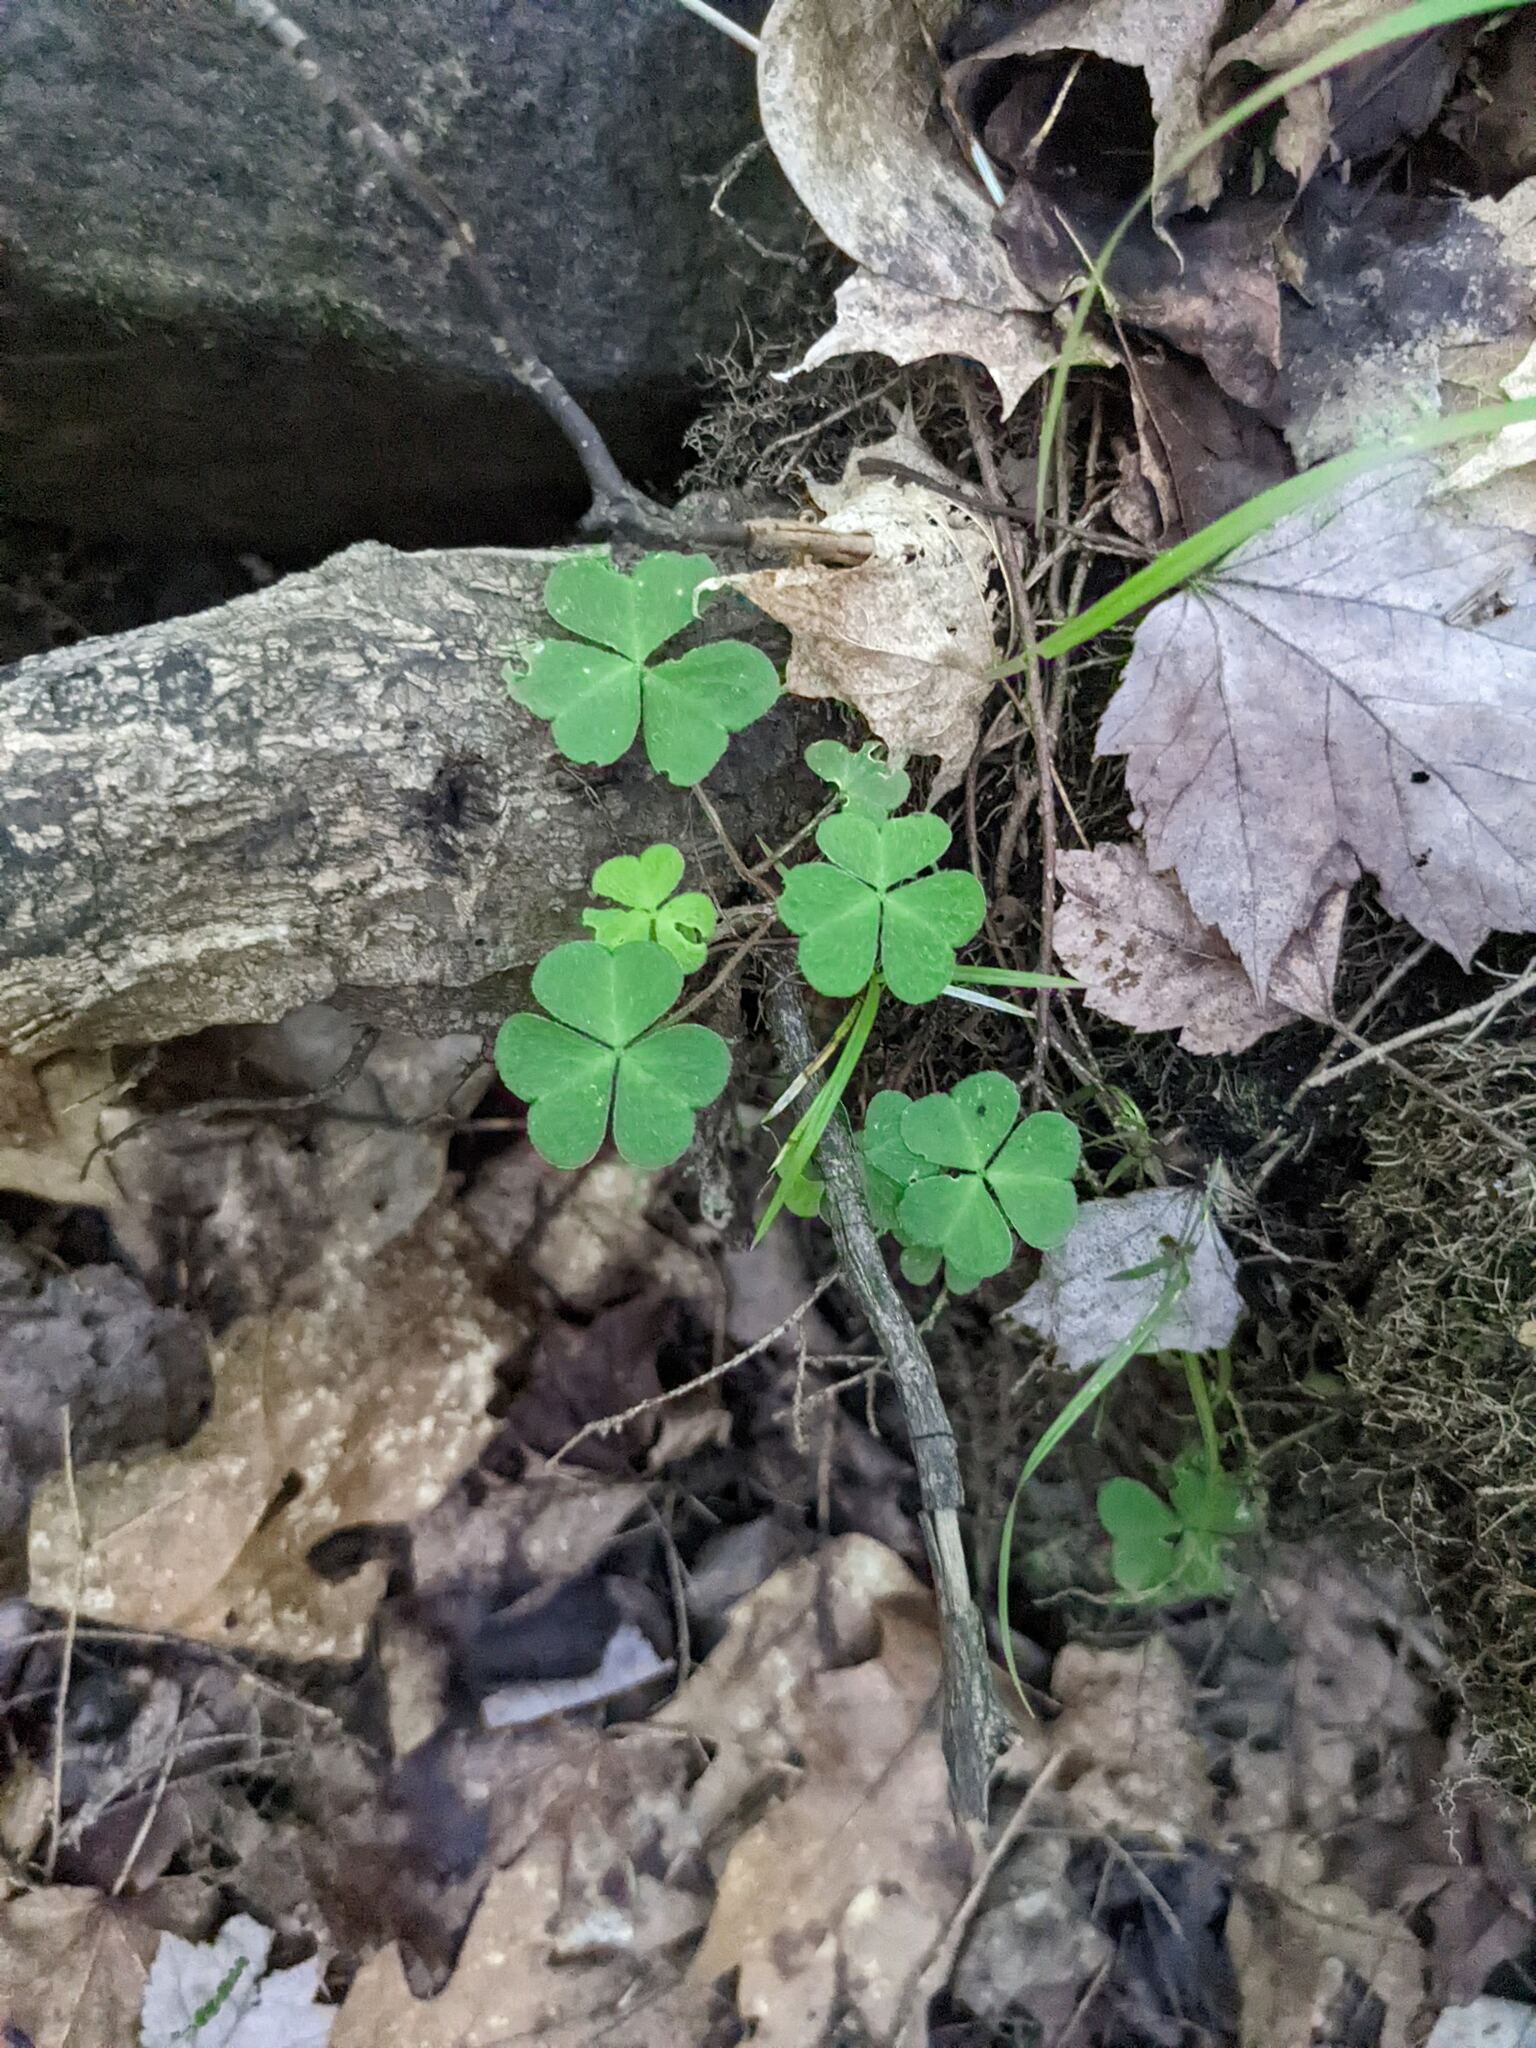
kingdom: Plantae
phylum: Tracheophyta
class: Magnoliopsida
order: Oxalidales
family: Oxalidaceae
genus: Oxalis
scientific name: Oxalis montana
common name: American wood-sorrel
